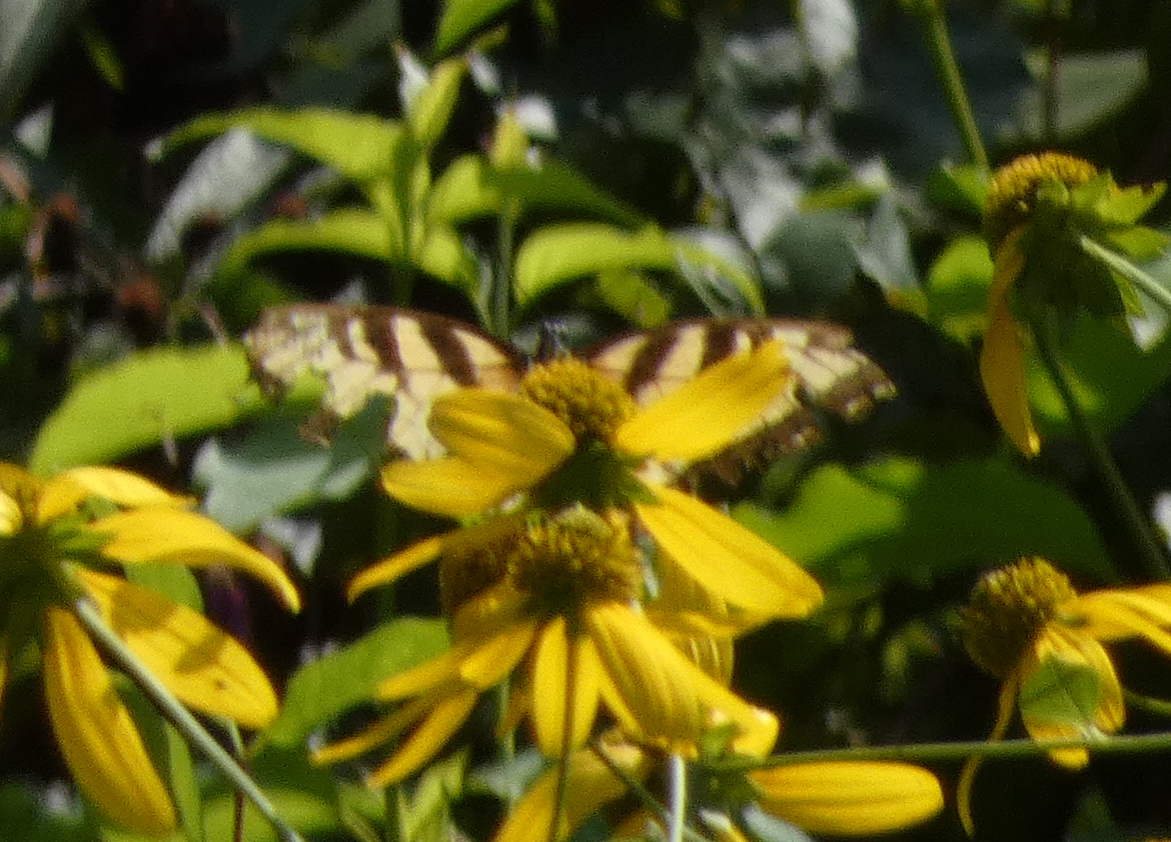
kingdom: Animalia
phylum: Arthropoda
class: Insecta
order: Lepidoptera
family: Papilionidae
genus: Papilio
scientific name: Papilio glaucus
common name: Tiger swallowtail
